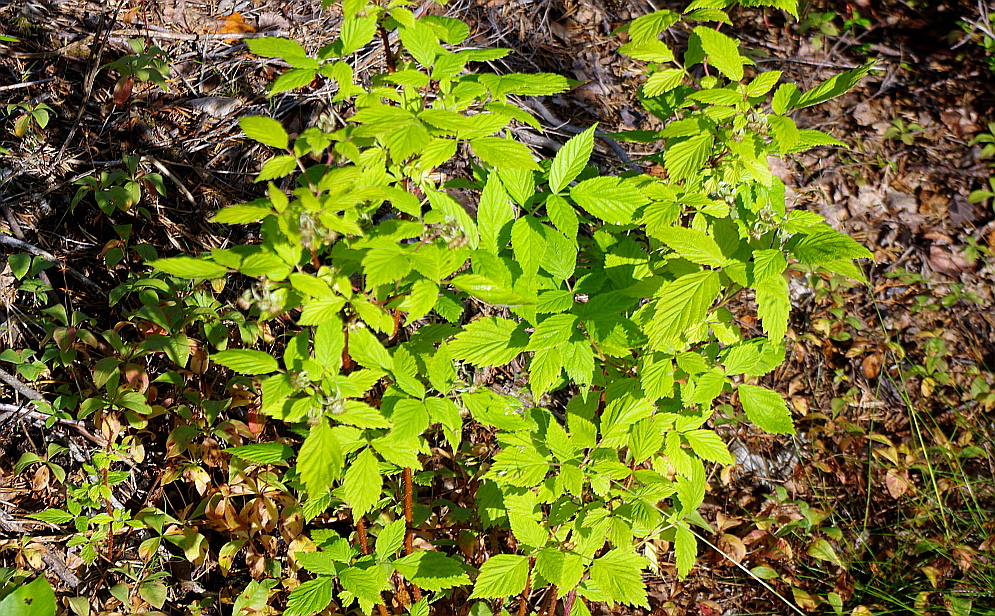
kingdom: Plantae
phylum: Tracheophyta
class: Magnoliopsida
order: Rosales
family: Rosaceae
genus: Rubus
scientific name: Rubus idaeus
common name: Raspberry
